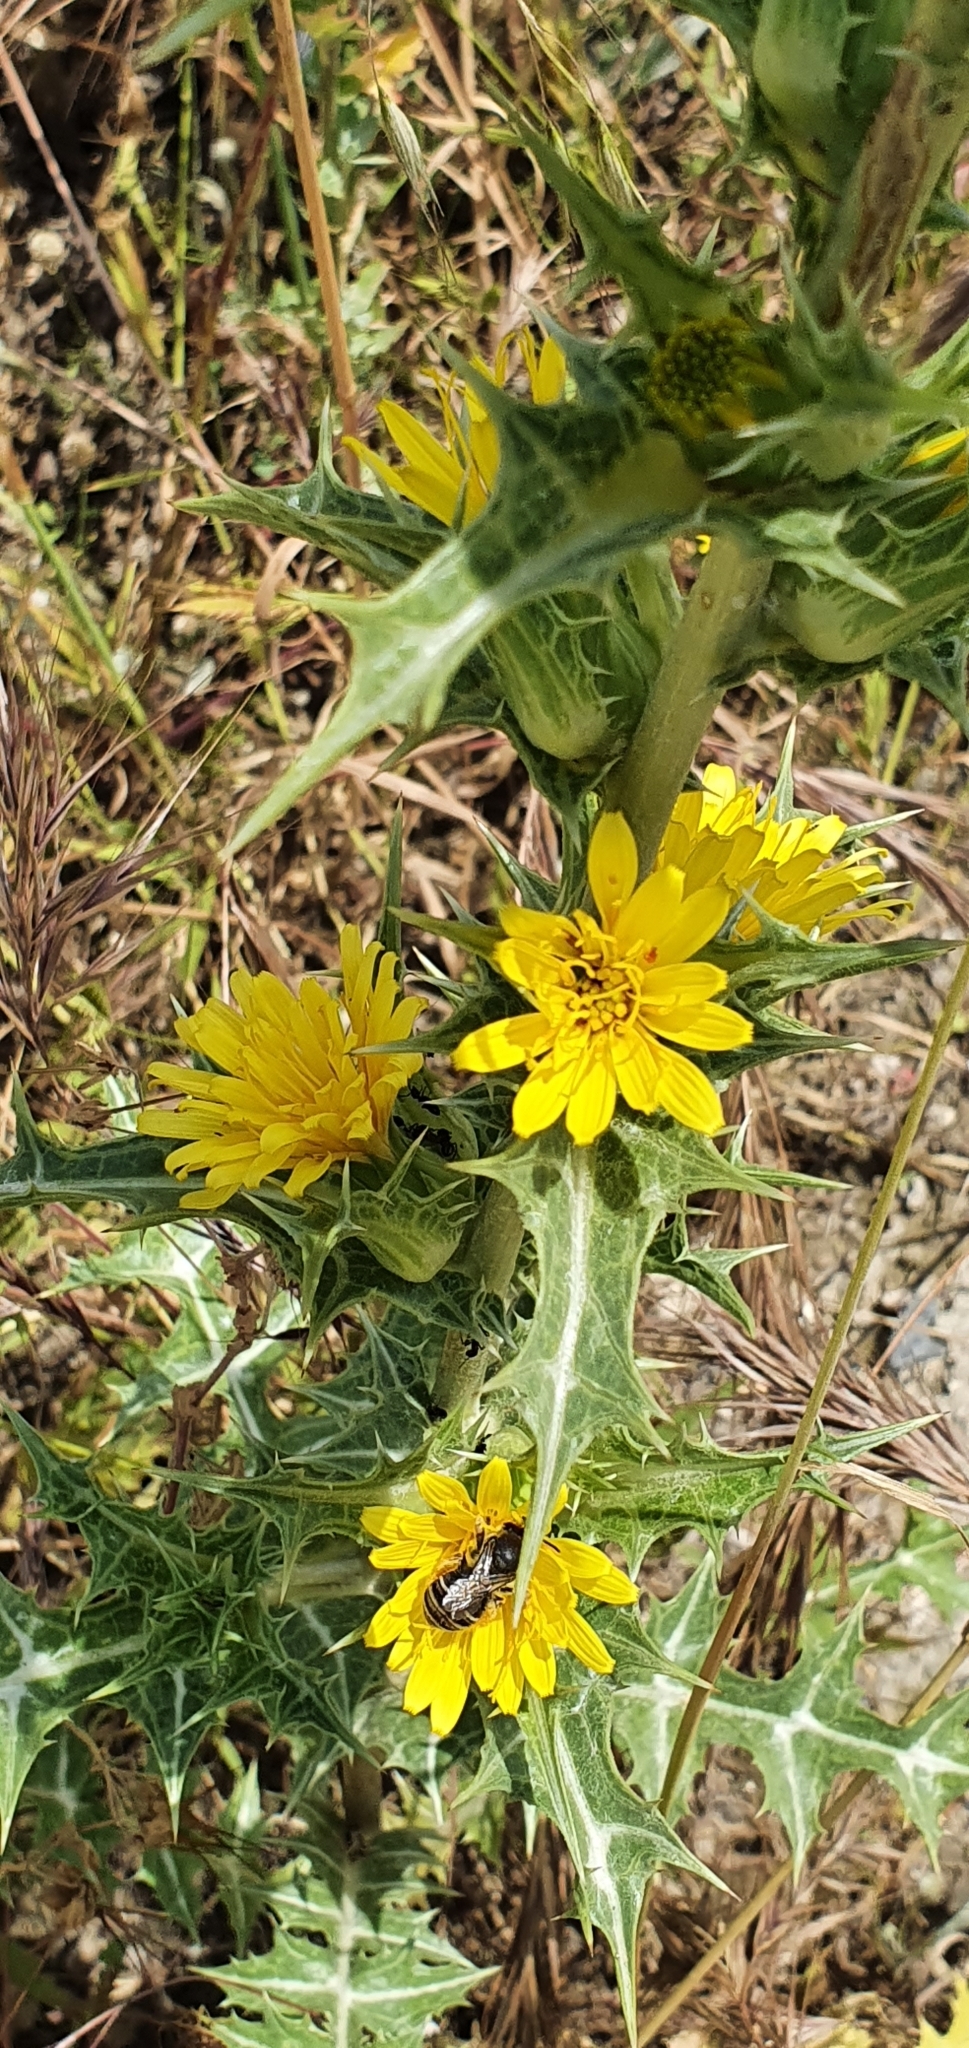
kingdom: Plantae
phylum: Tracheophyta
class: Magnoliopsida
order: Asterales
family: Asteraceae
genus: Scolymus
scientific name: Scolymus hispanicus
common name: Golden thistle
